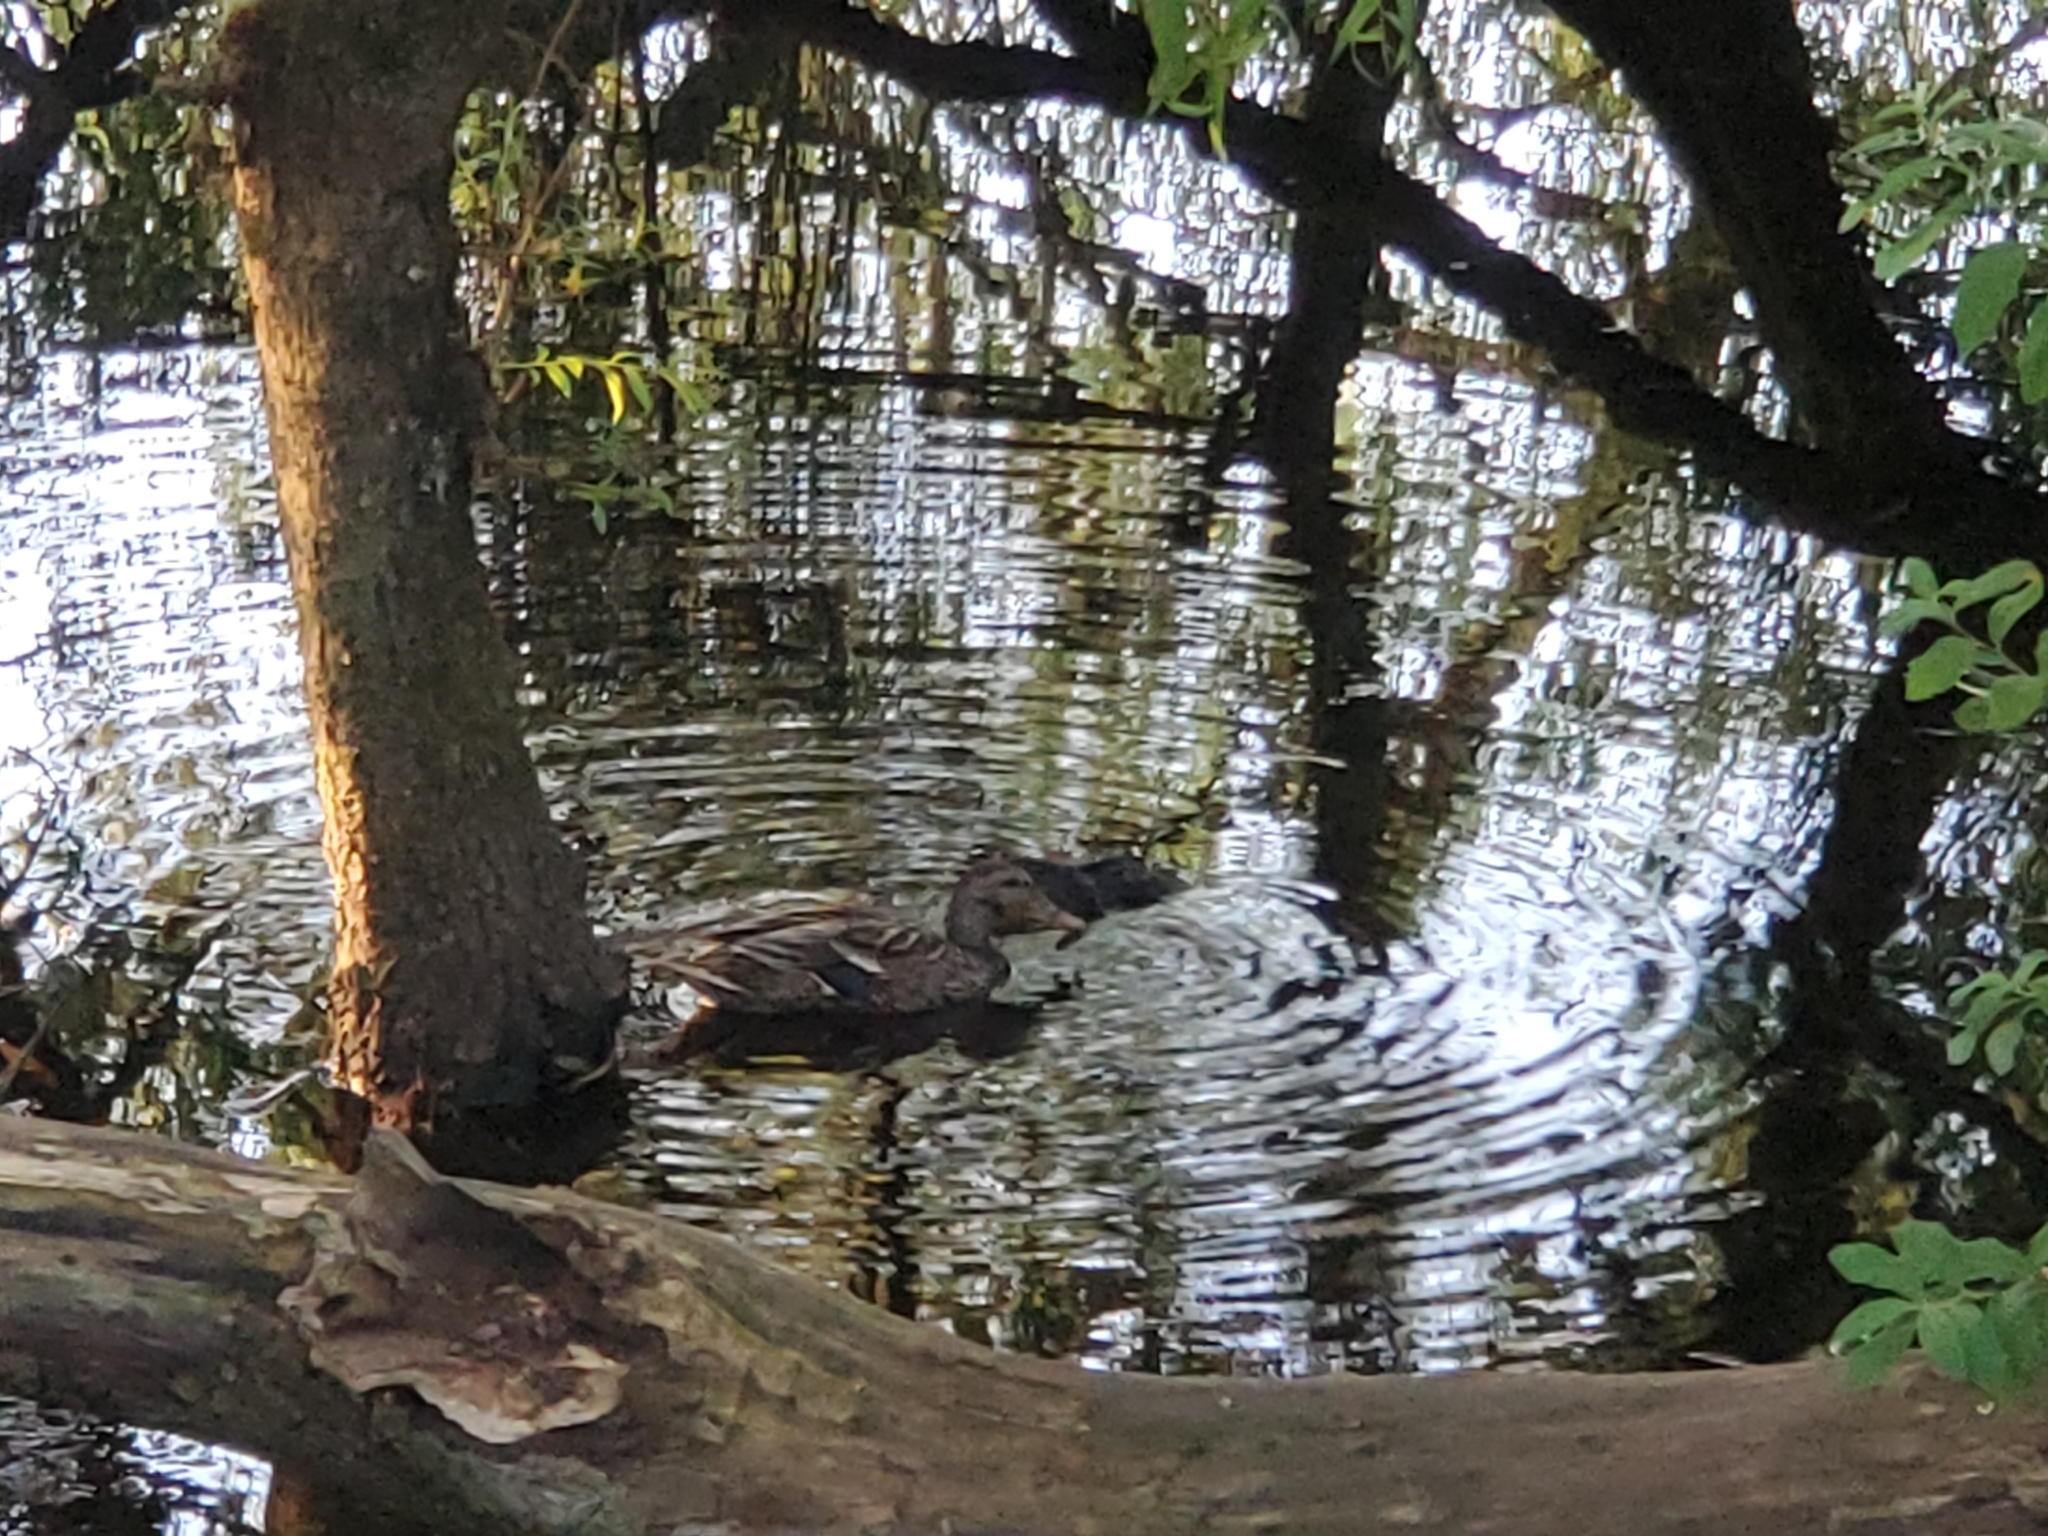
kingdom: Animalia
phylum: Chordata
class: Aves
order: Anseriformes
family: Anatidae
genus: Anas
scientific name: Anas platyrhynchos
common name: Mallard
